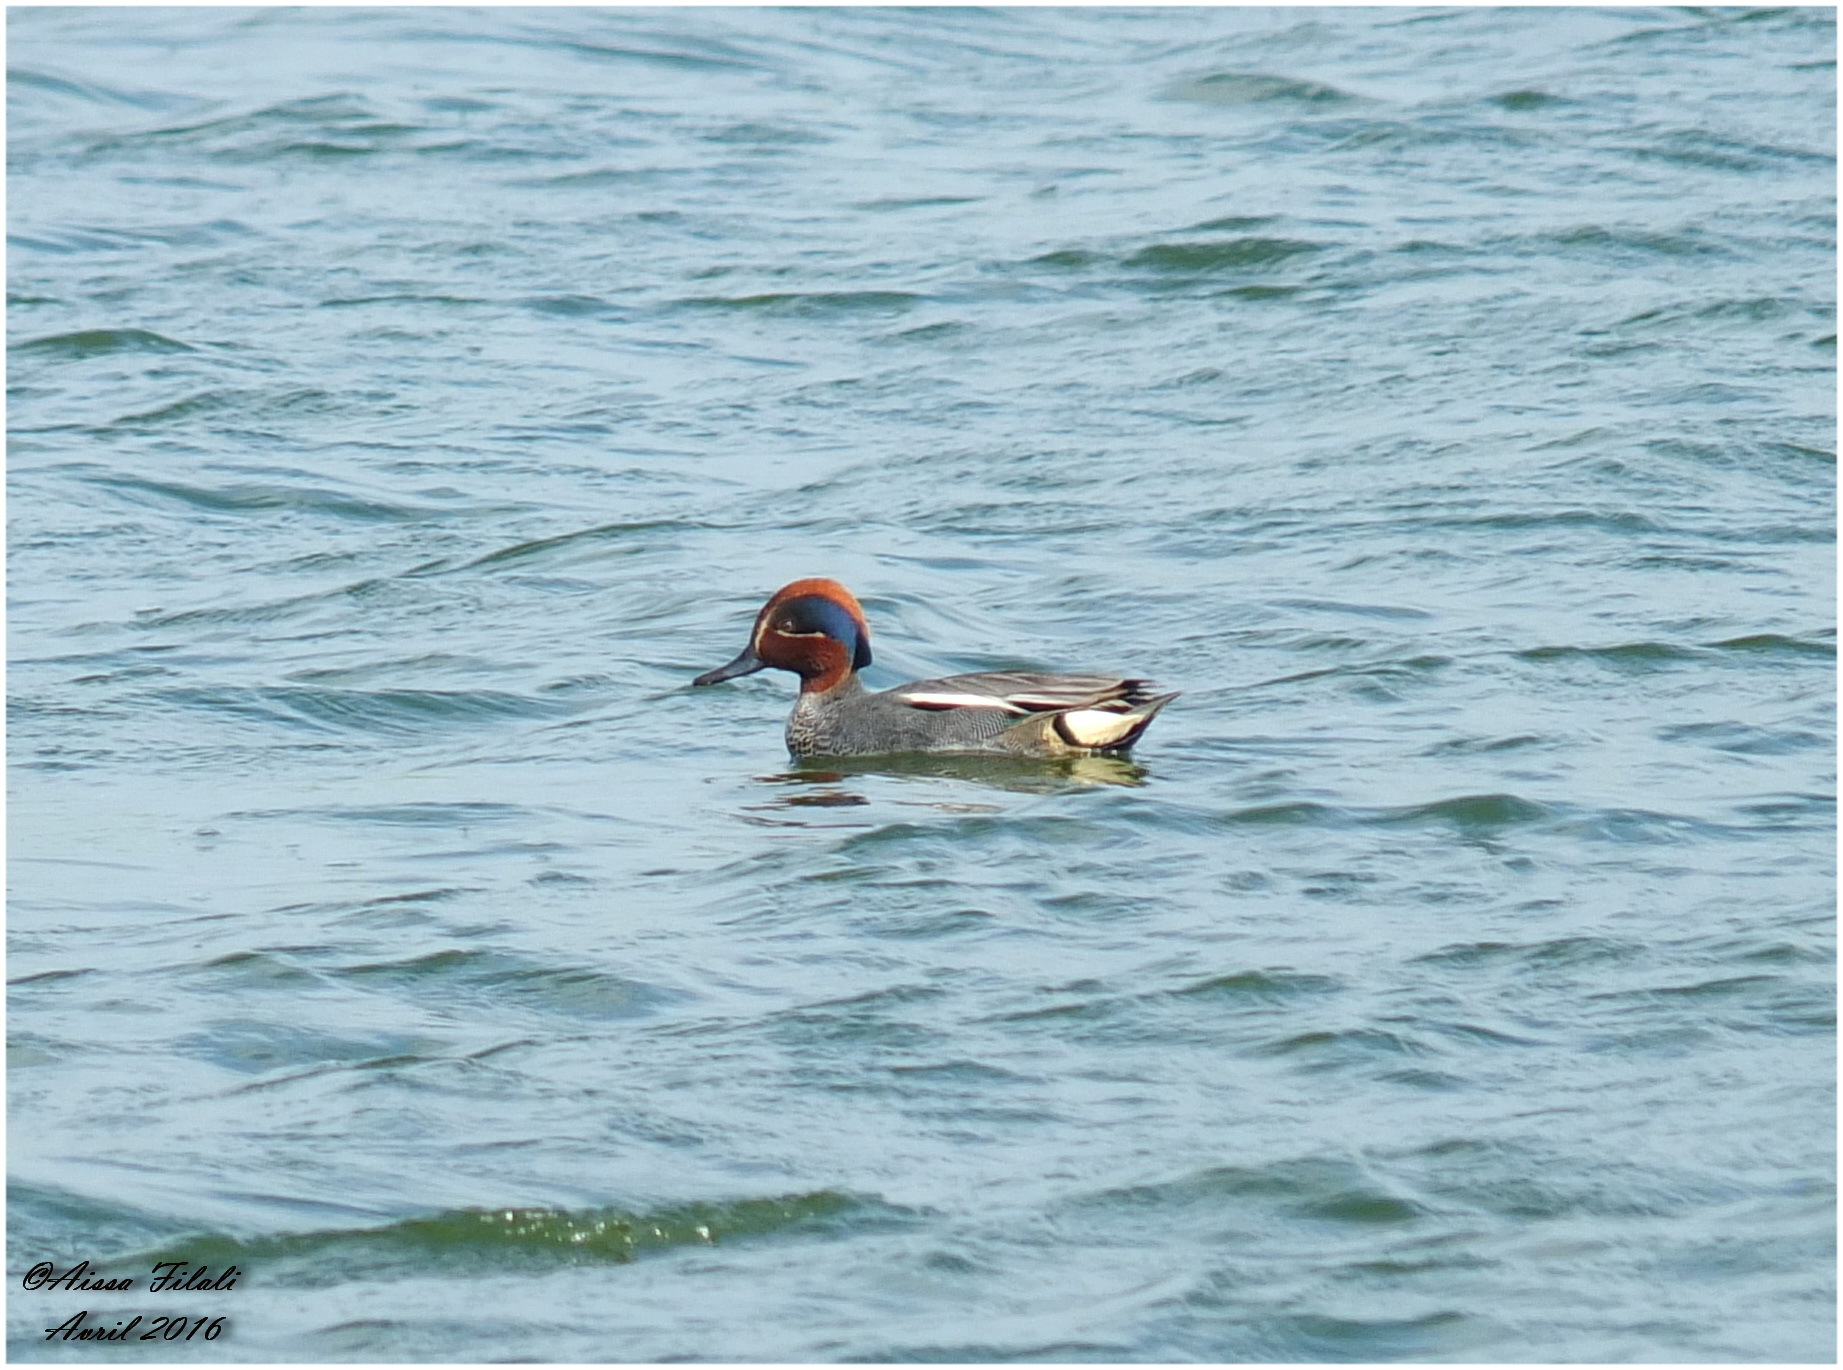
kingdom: Animalia
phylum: Chordata
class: Aves
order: Anseriformes
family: Anatidae
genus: Anas
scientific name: Anas crecca
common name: Eurasian teal
